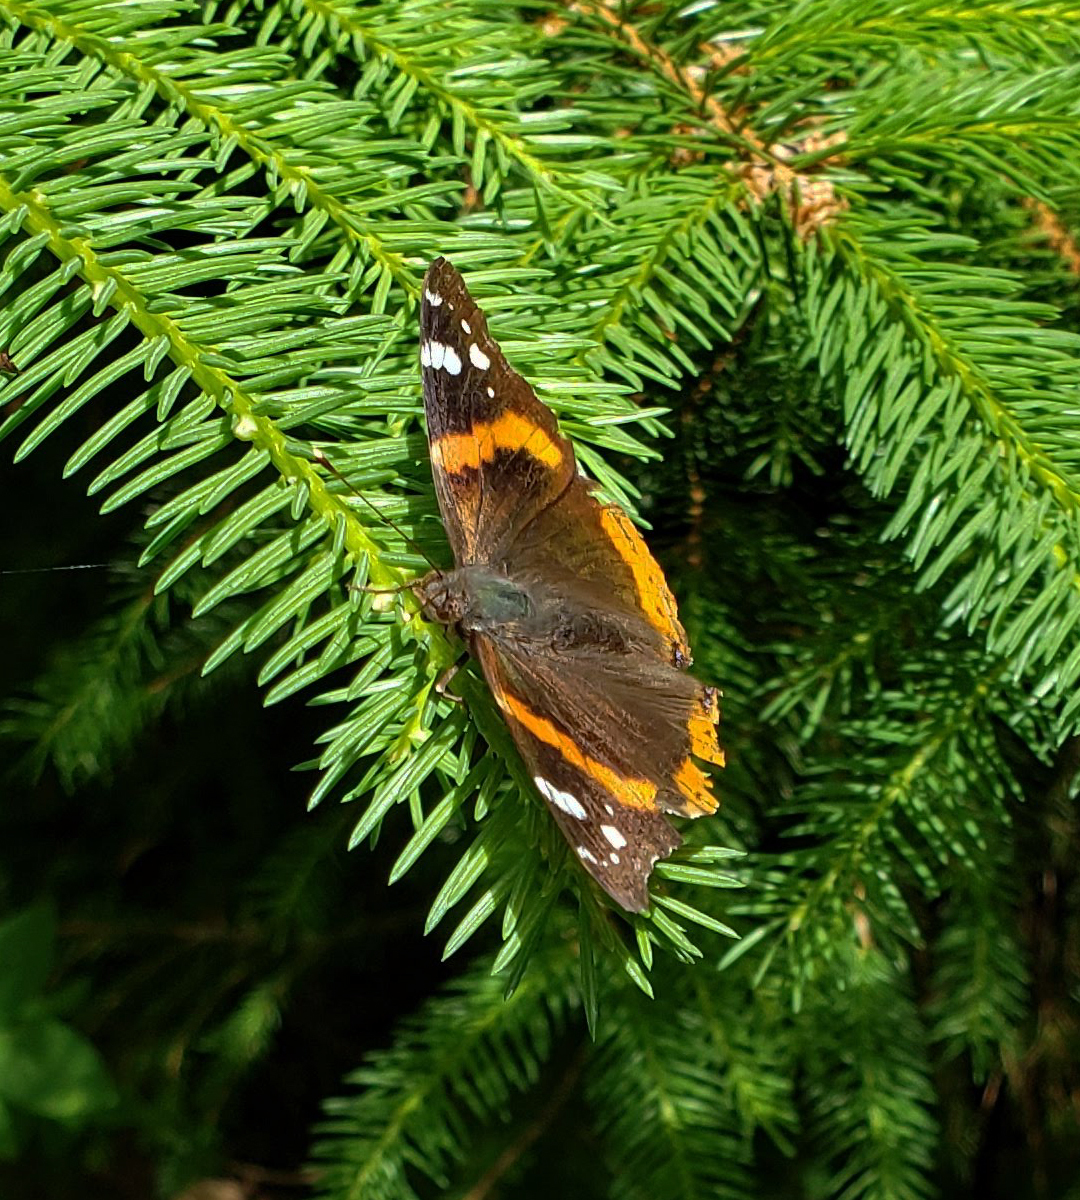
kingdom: Animalia
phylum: Arthropoda
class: Insecta
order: Lepidoptera
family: Nymphalidae
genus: Vanessa
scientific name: Vanessa atalanta
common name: Red admiral
